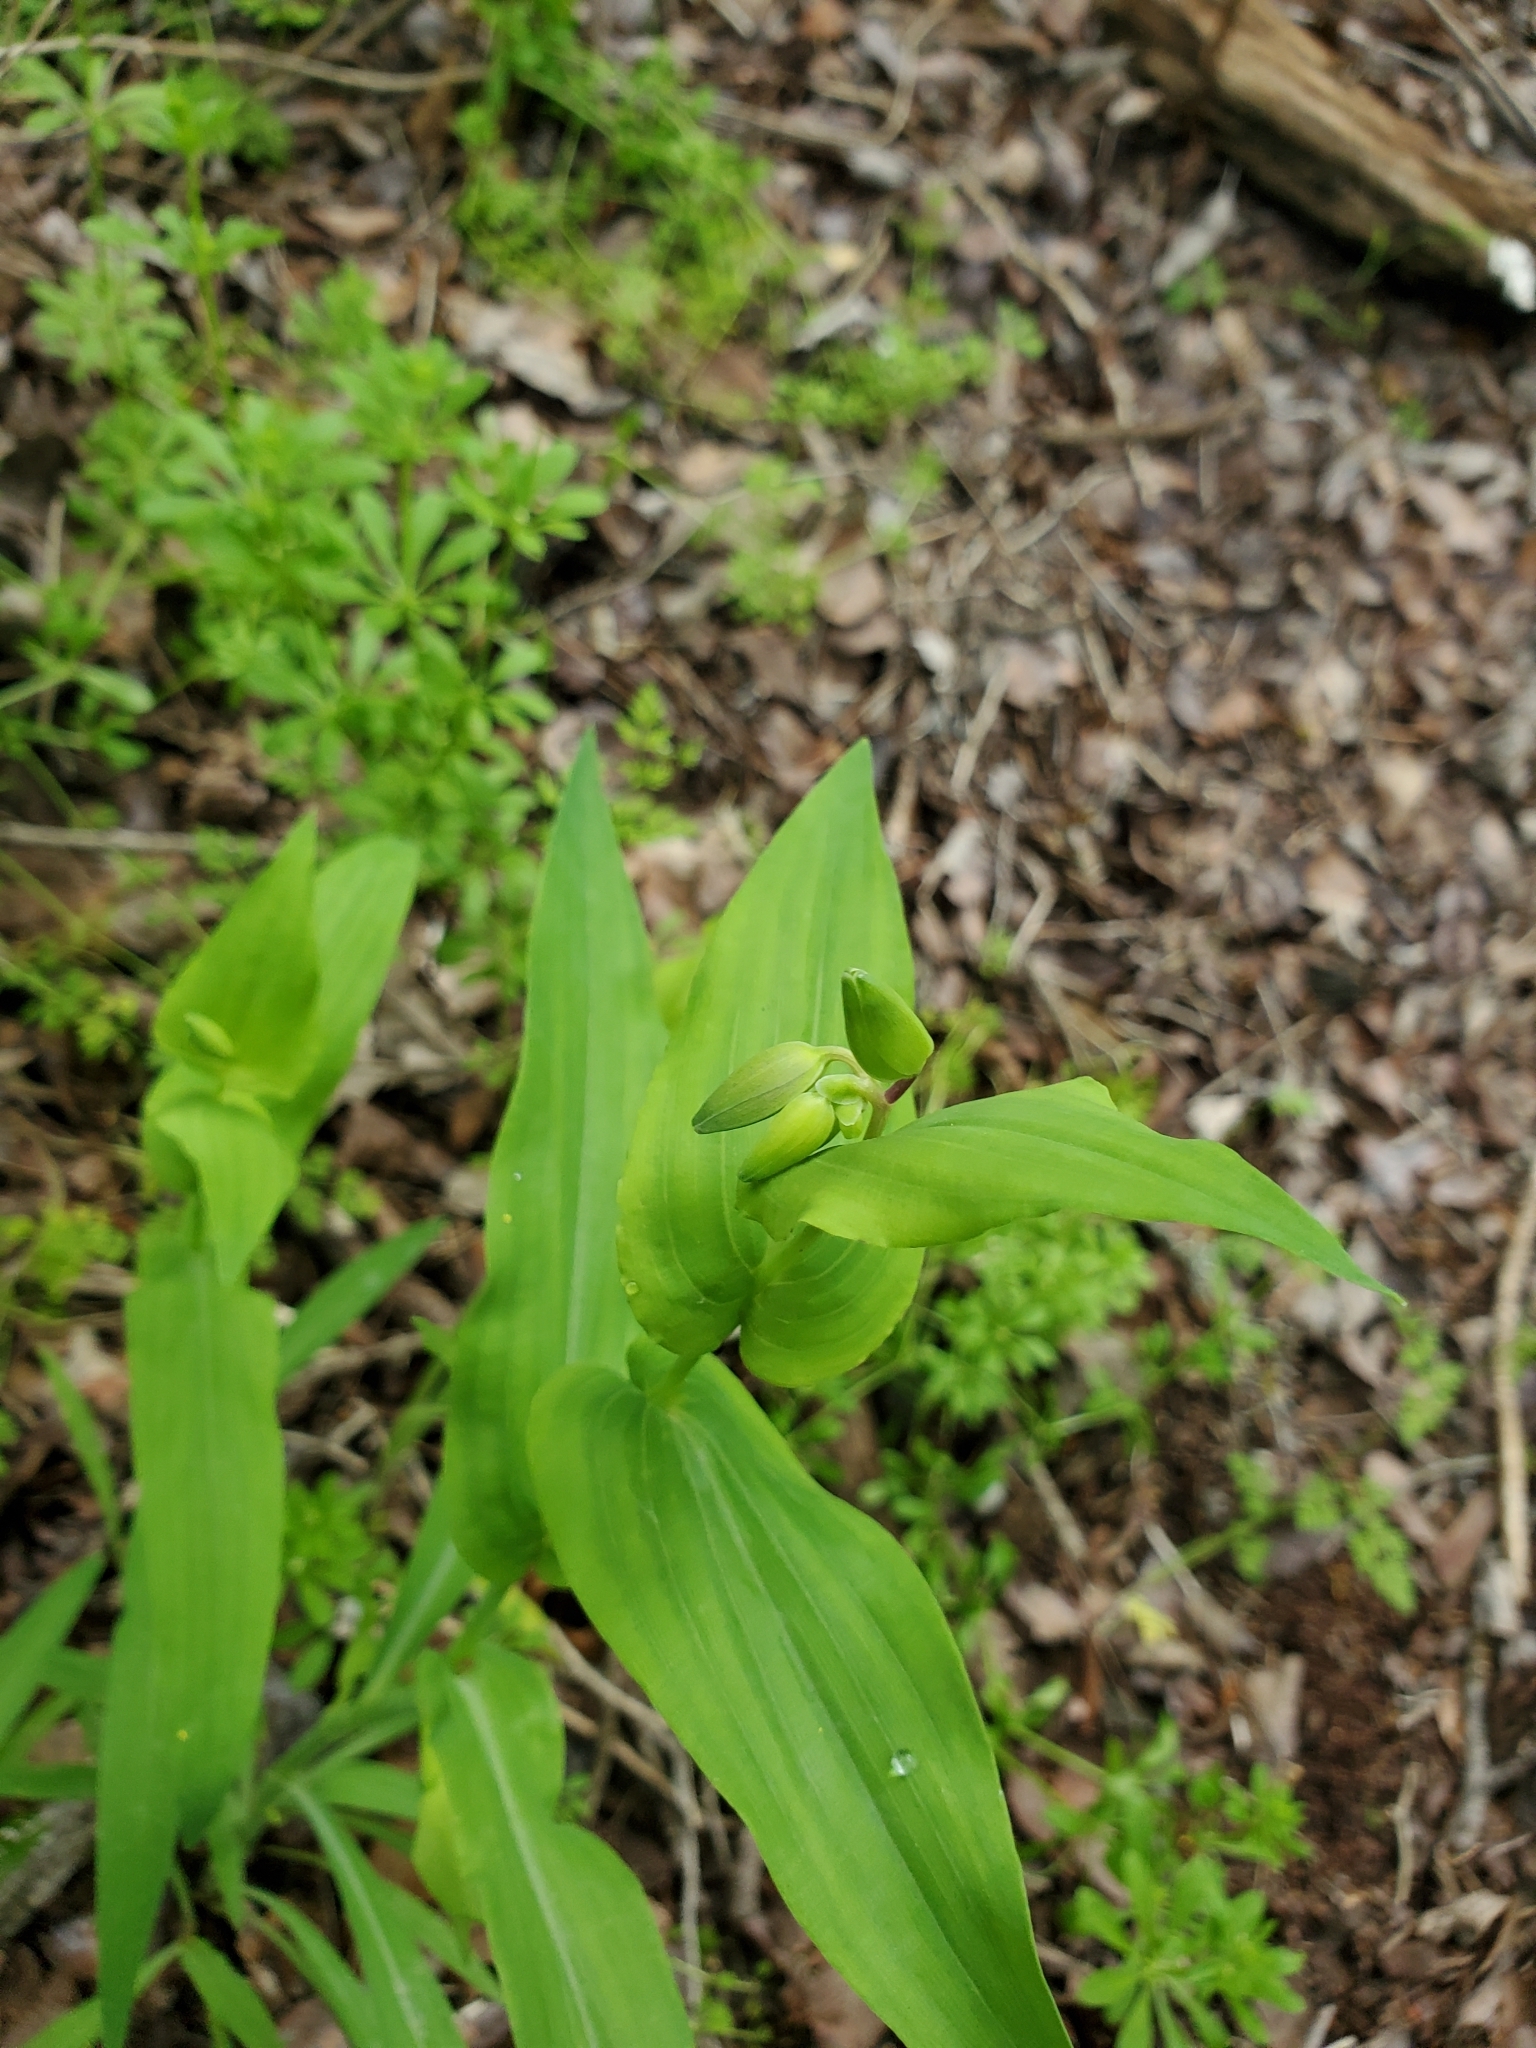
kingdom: Plantae
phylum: Tracheophyta
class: Liliopsida
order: Commelinales
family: Commelinaceae
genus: Tinantia
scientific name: Tinantia anomala
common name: False dayflower
